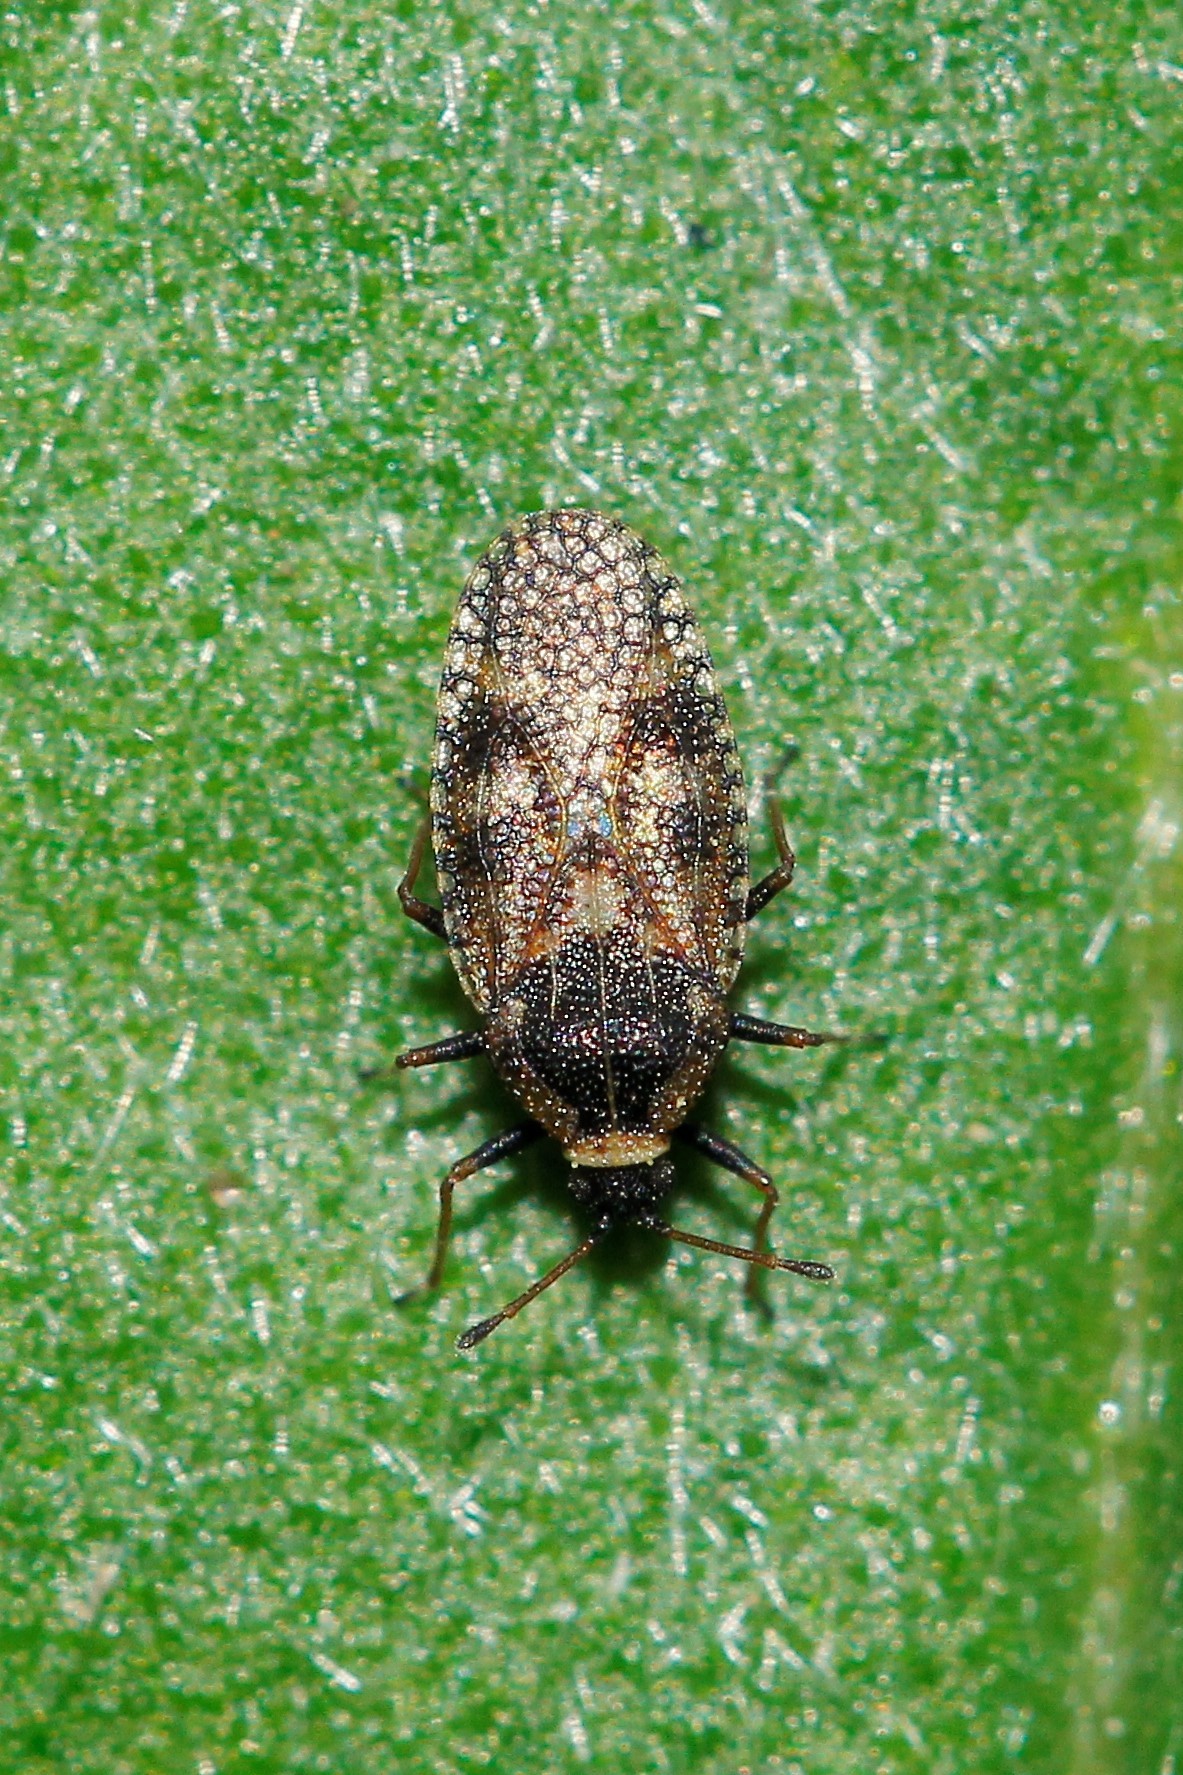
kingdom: Animalia
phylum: Arthropoda
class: Insecta
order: Hemiptera
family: Tingidae
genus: Dictyla
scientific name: Dictyla echii
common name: Lace bug
